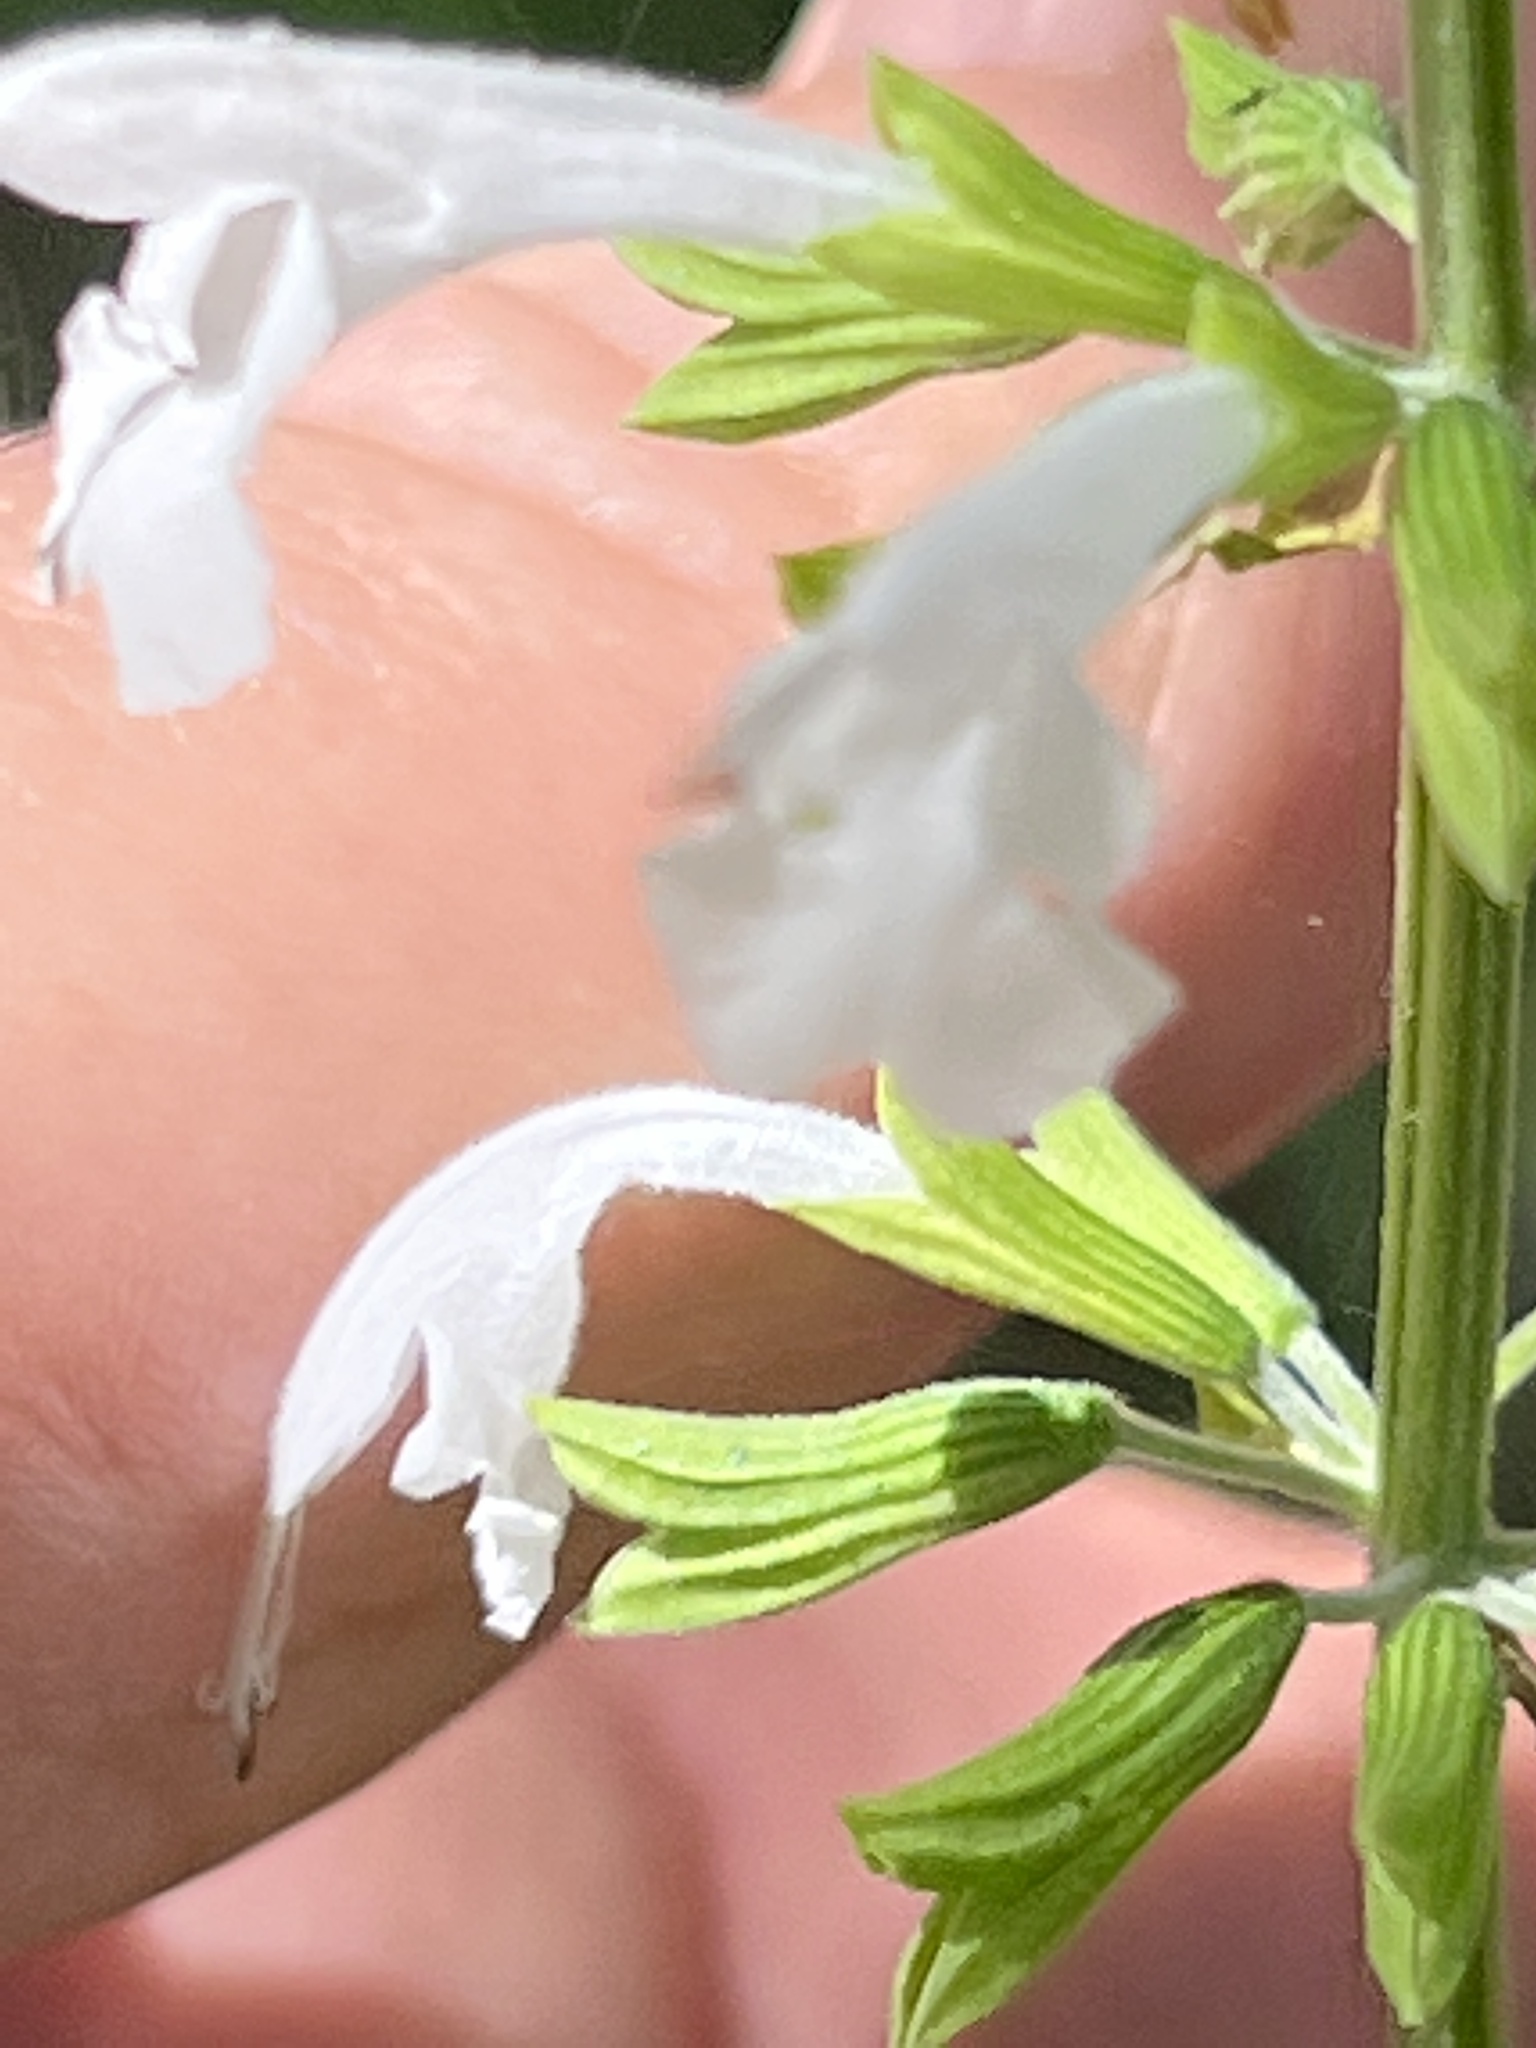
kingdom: Plantae
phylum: Tracheophyta
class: Magnoliopsida
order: Lamiales
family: Lamiaceae
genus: Salvia
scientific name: Salvia coccinea
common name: Blood sage
